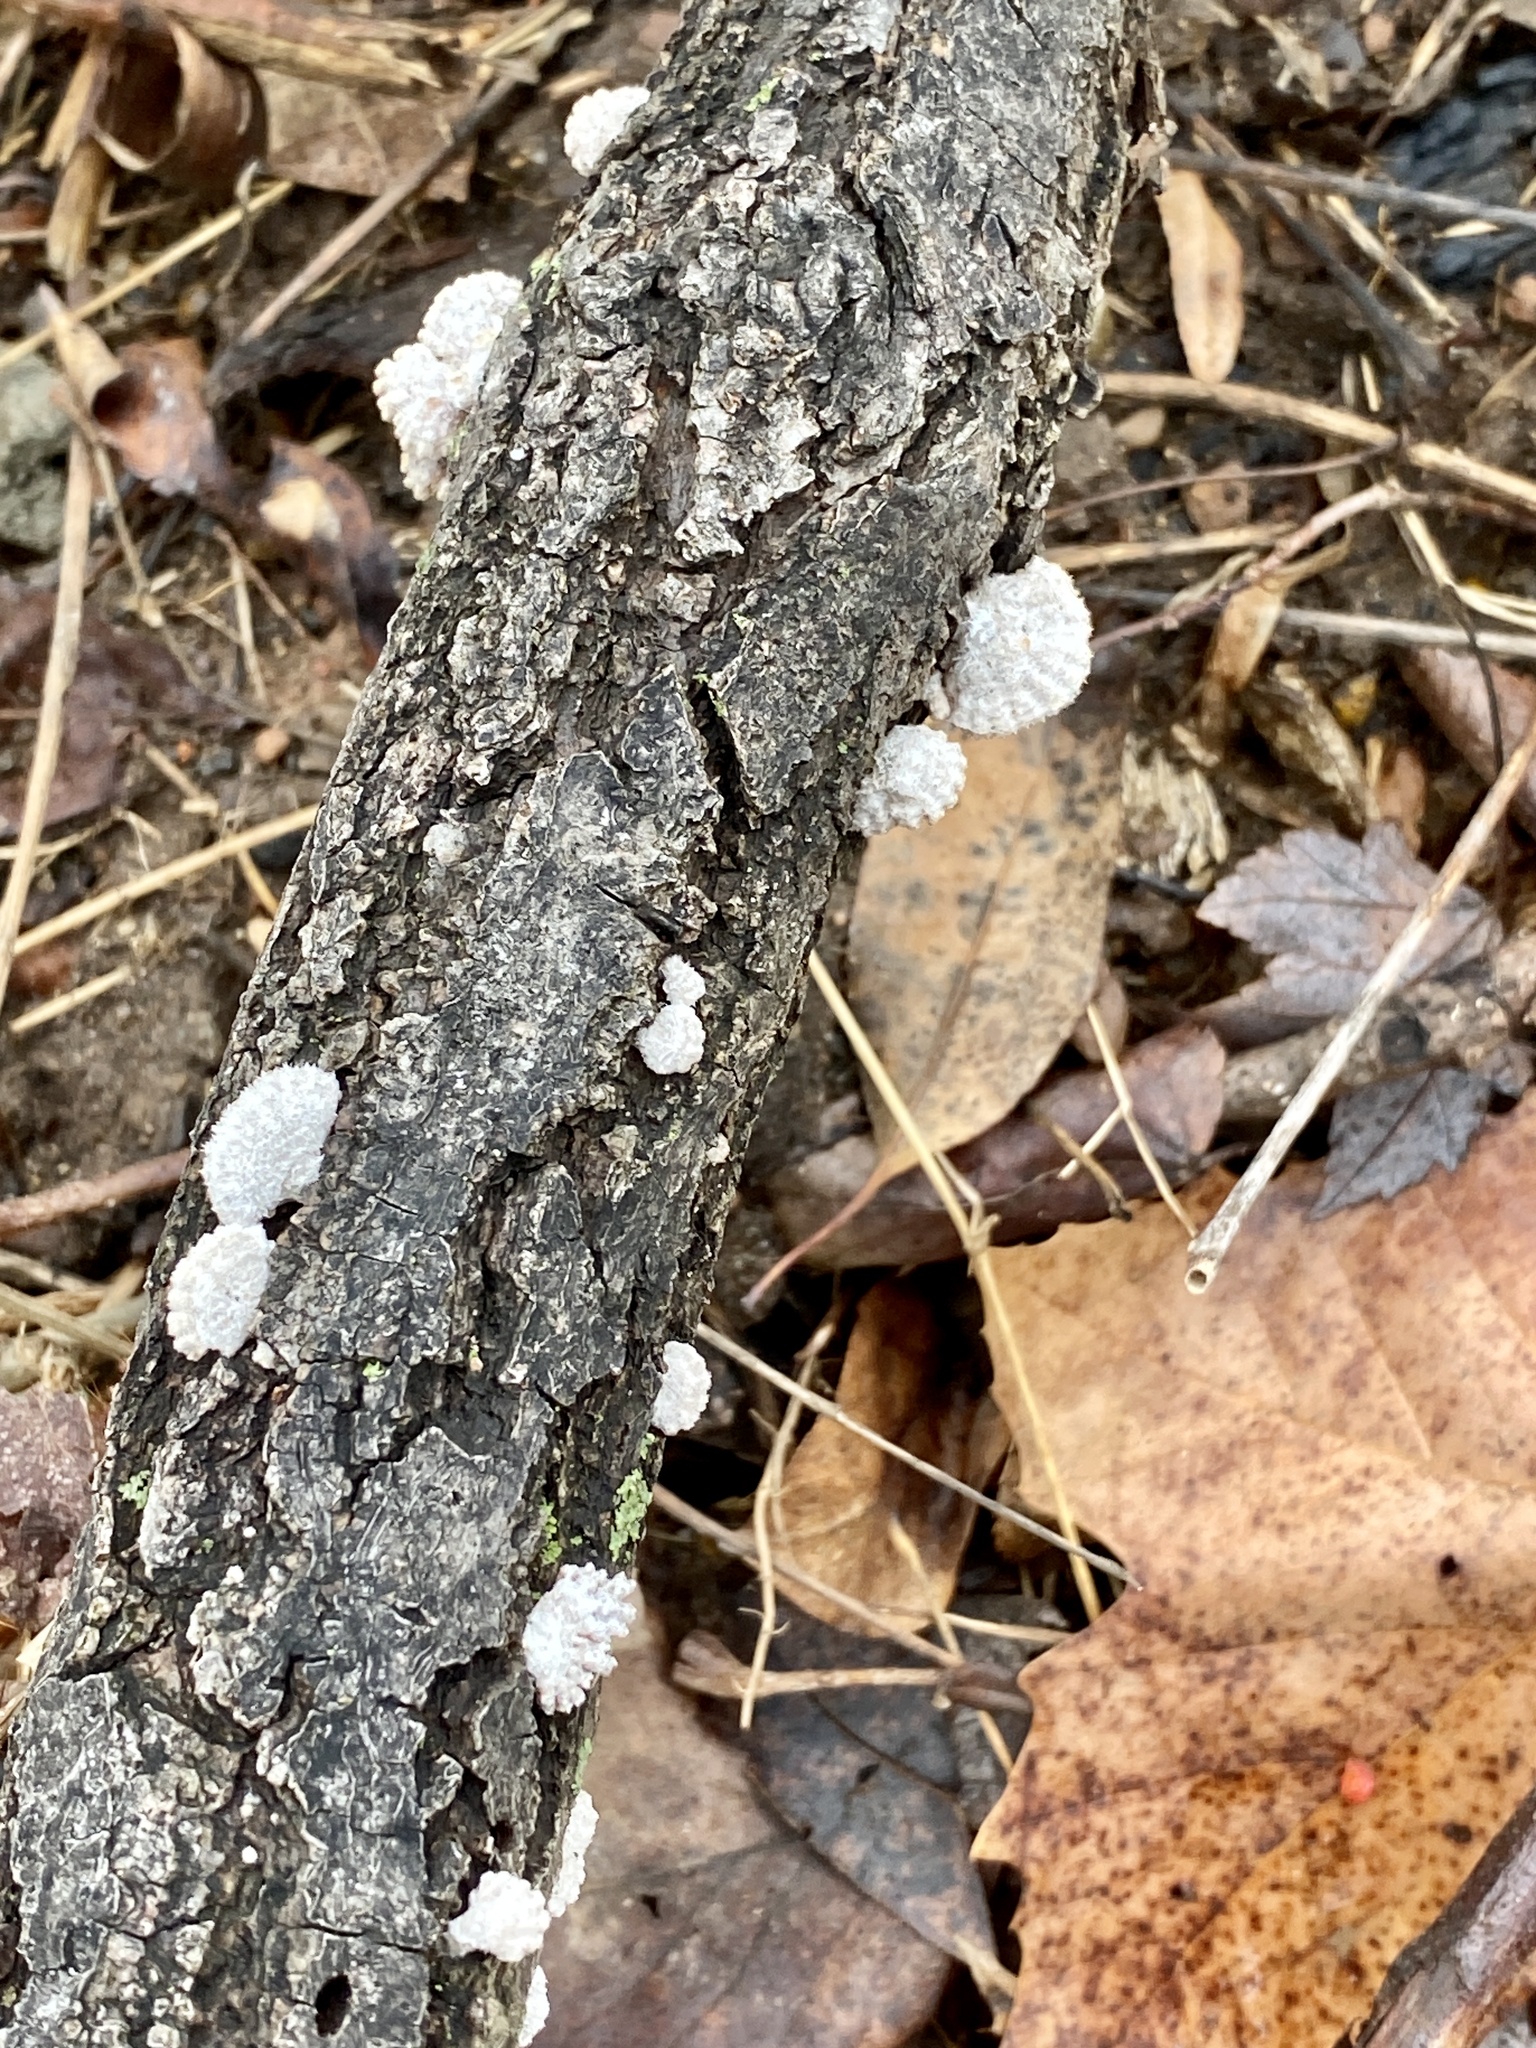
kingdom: Fungi
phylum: Basidiomycota
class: Agaricomycetes
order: Agaricales
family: Schizophyllaceae
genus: Schizophyllum
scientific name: Schizophyllum commune
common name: Common porecrust
